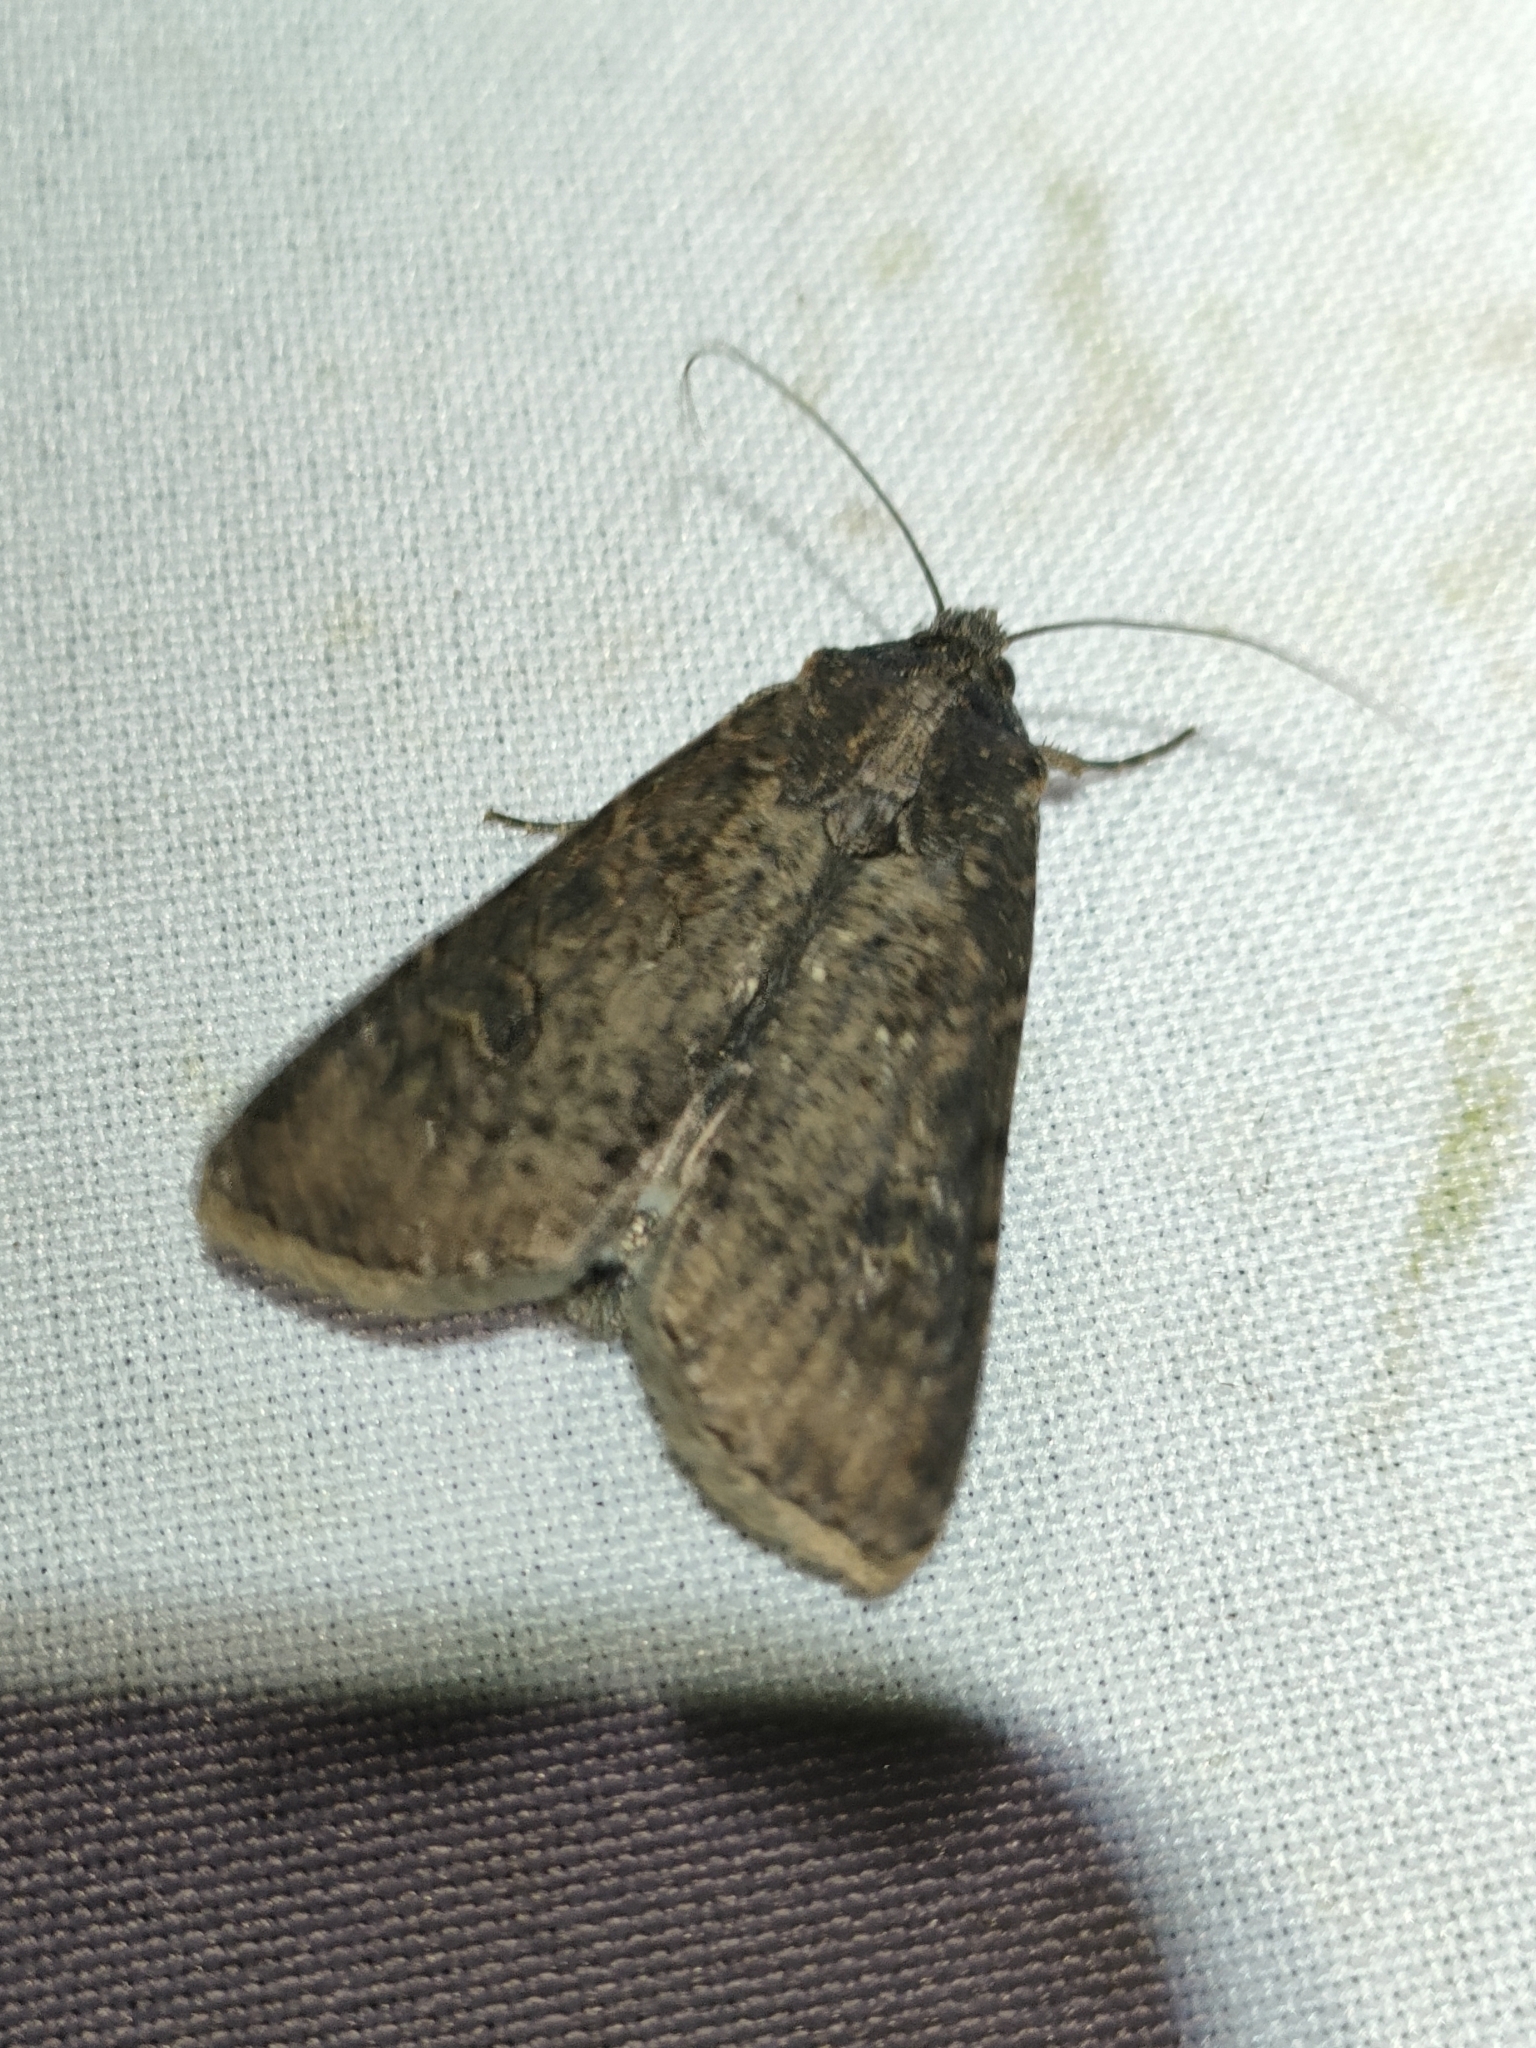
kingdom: Animalia
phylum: Arthropoda
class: Insecta
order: Lepidoptera
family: Noctuidae
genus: Peridroma
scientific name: Peridroma saucia
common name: Pearly underwing
